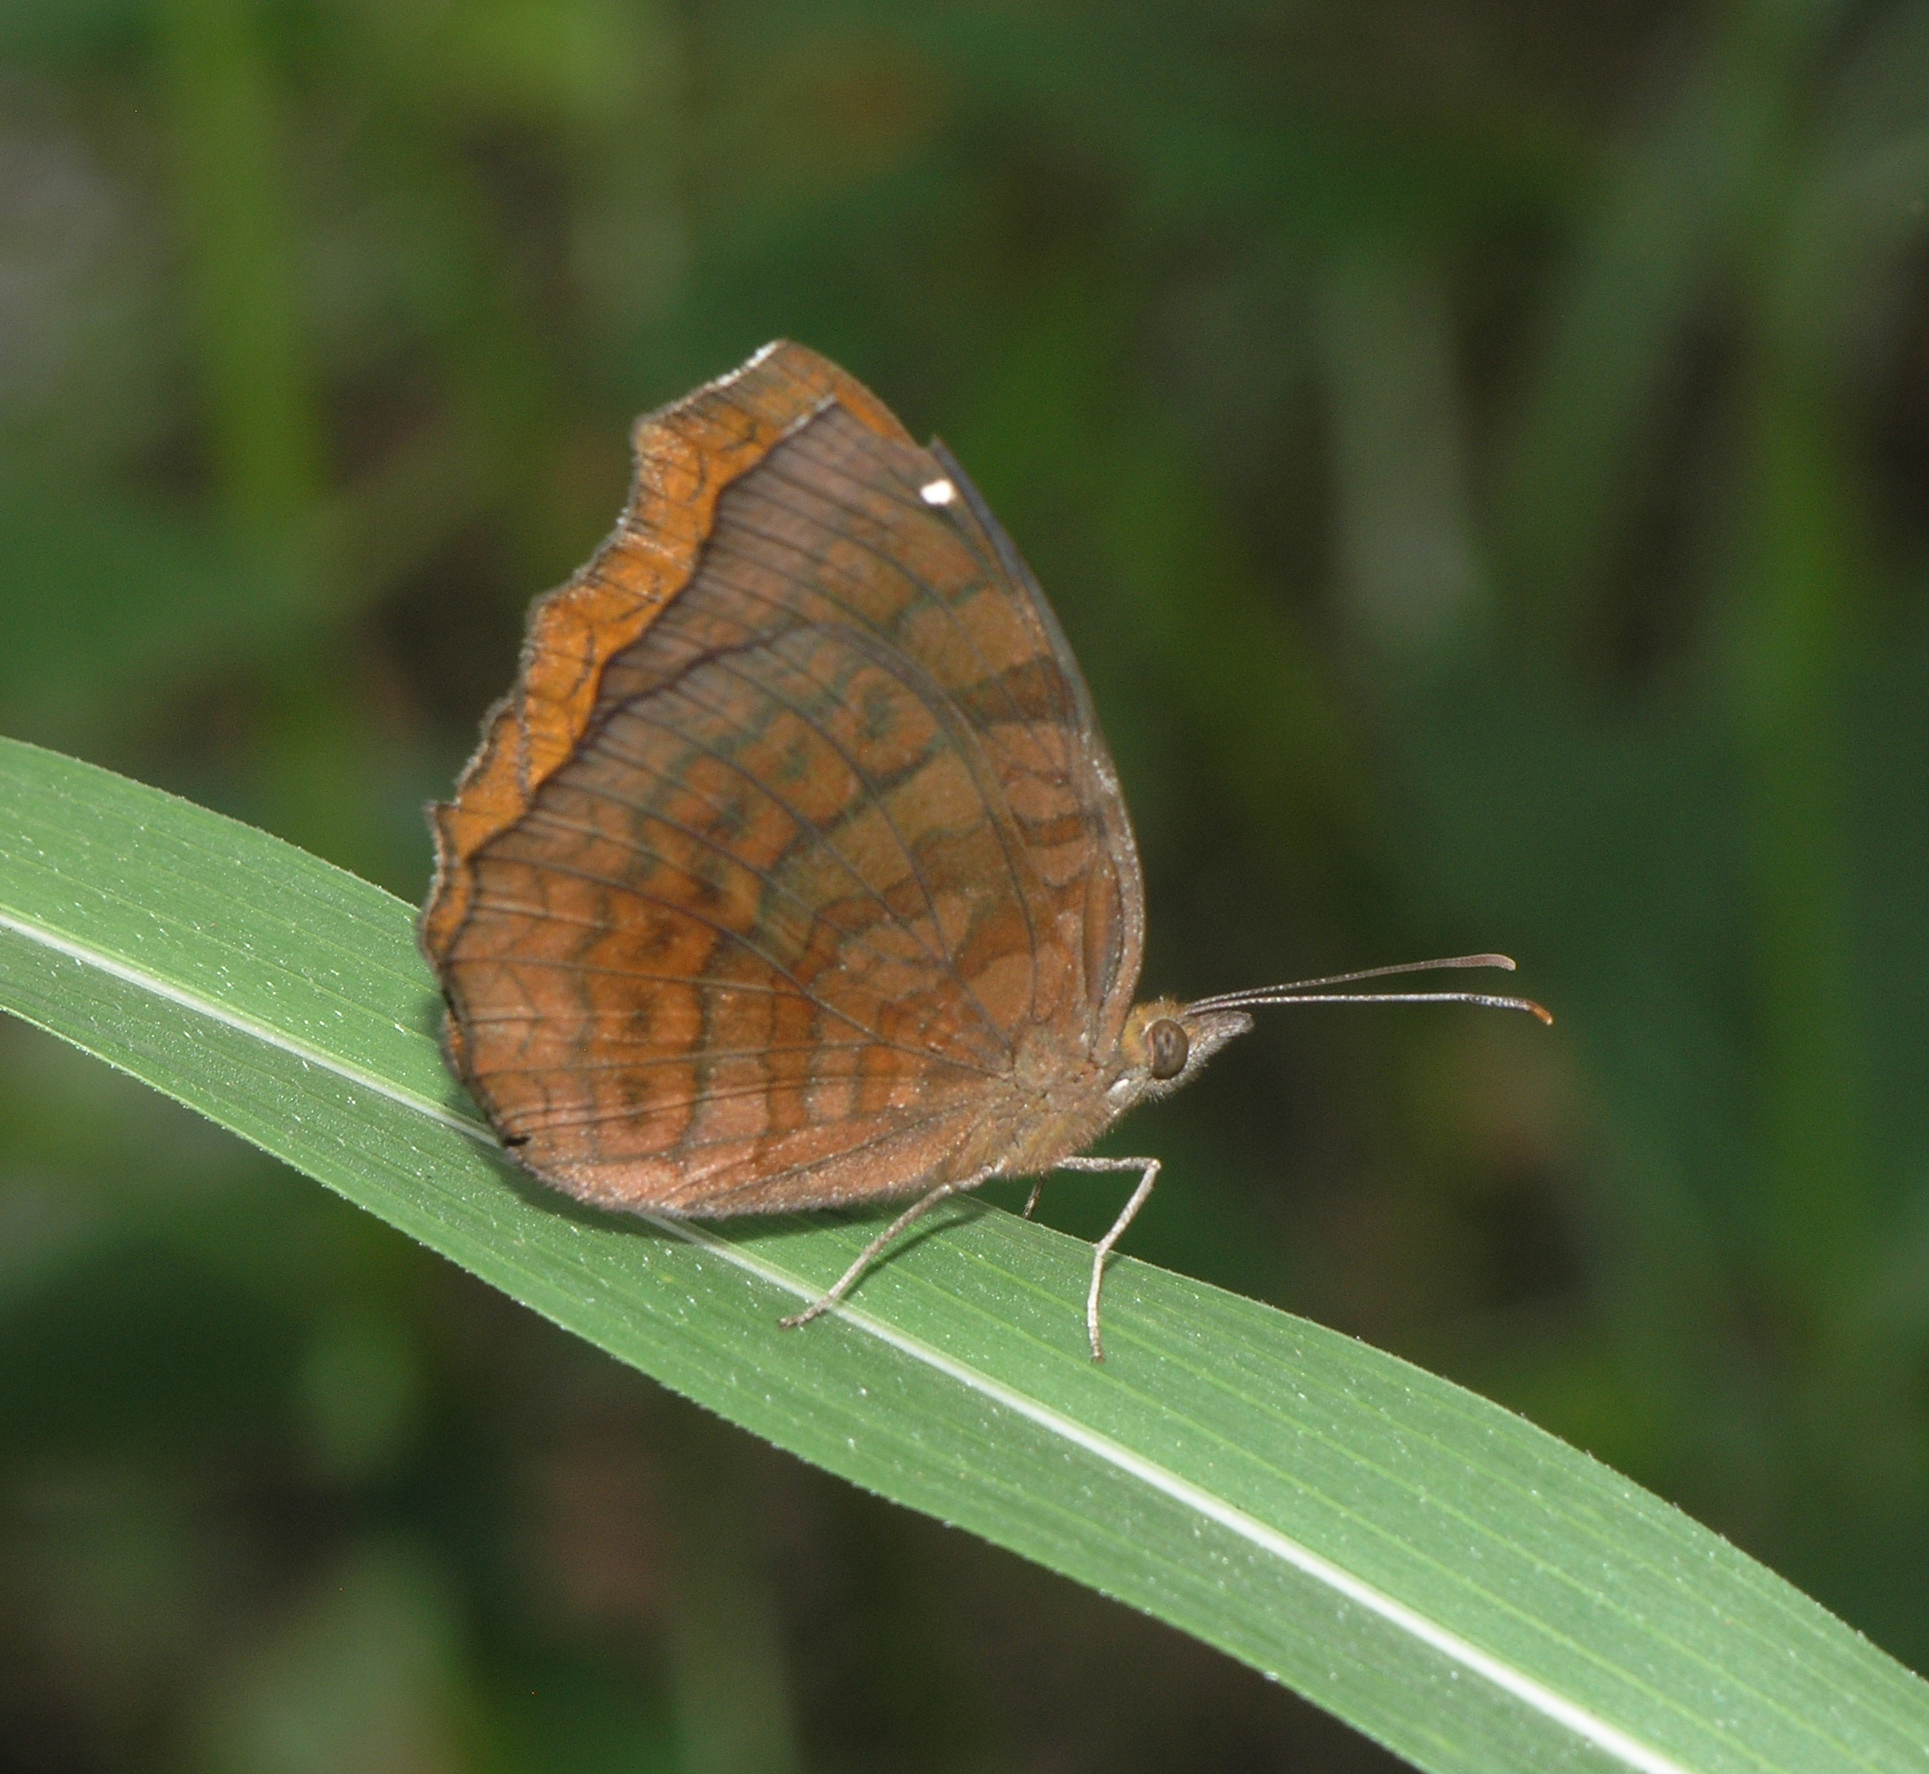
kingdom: Animalia
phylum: Arthropoda
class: Insecta
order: Lepidoptera
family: Nymphalidae
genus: Ariadne
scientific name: Ariadne merione
